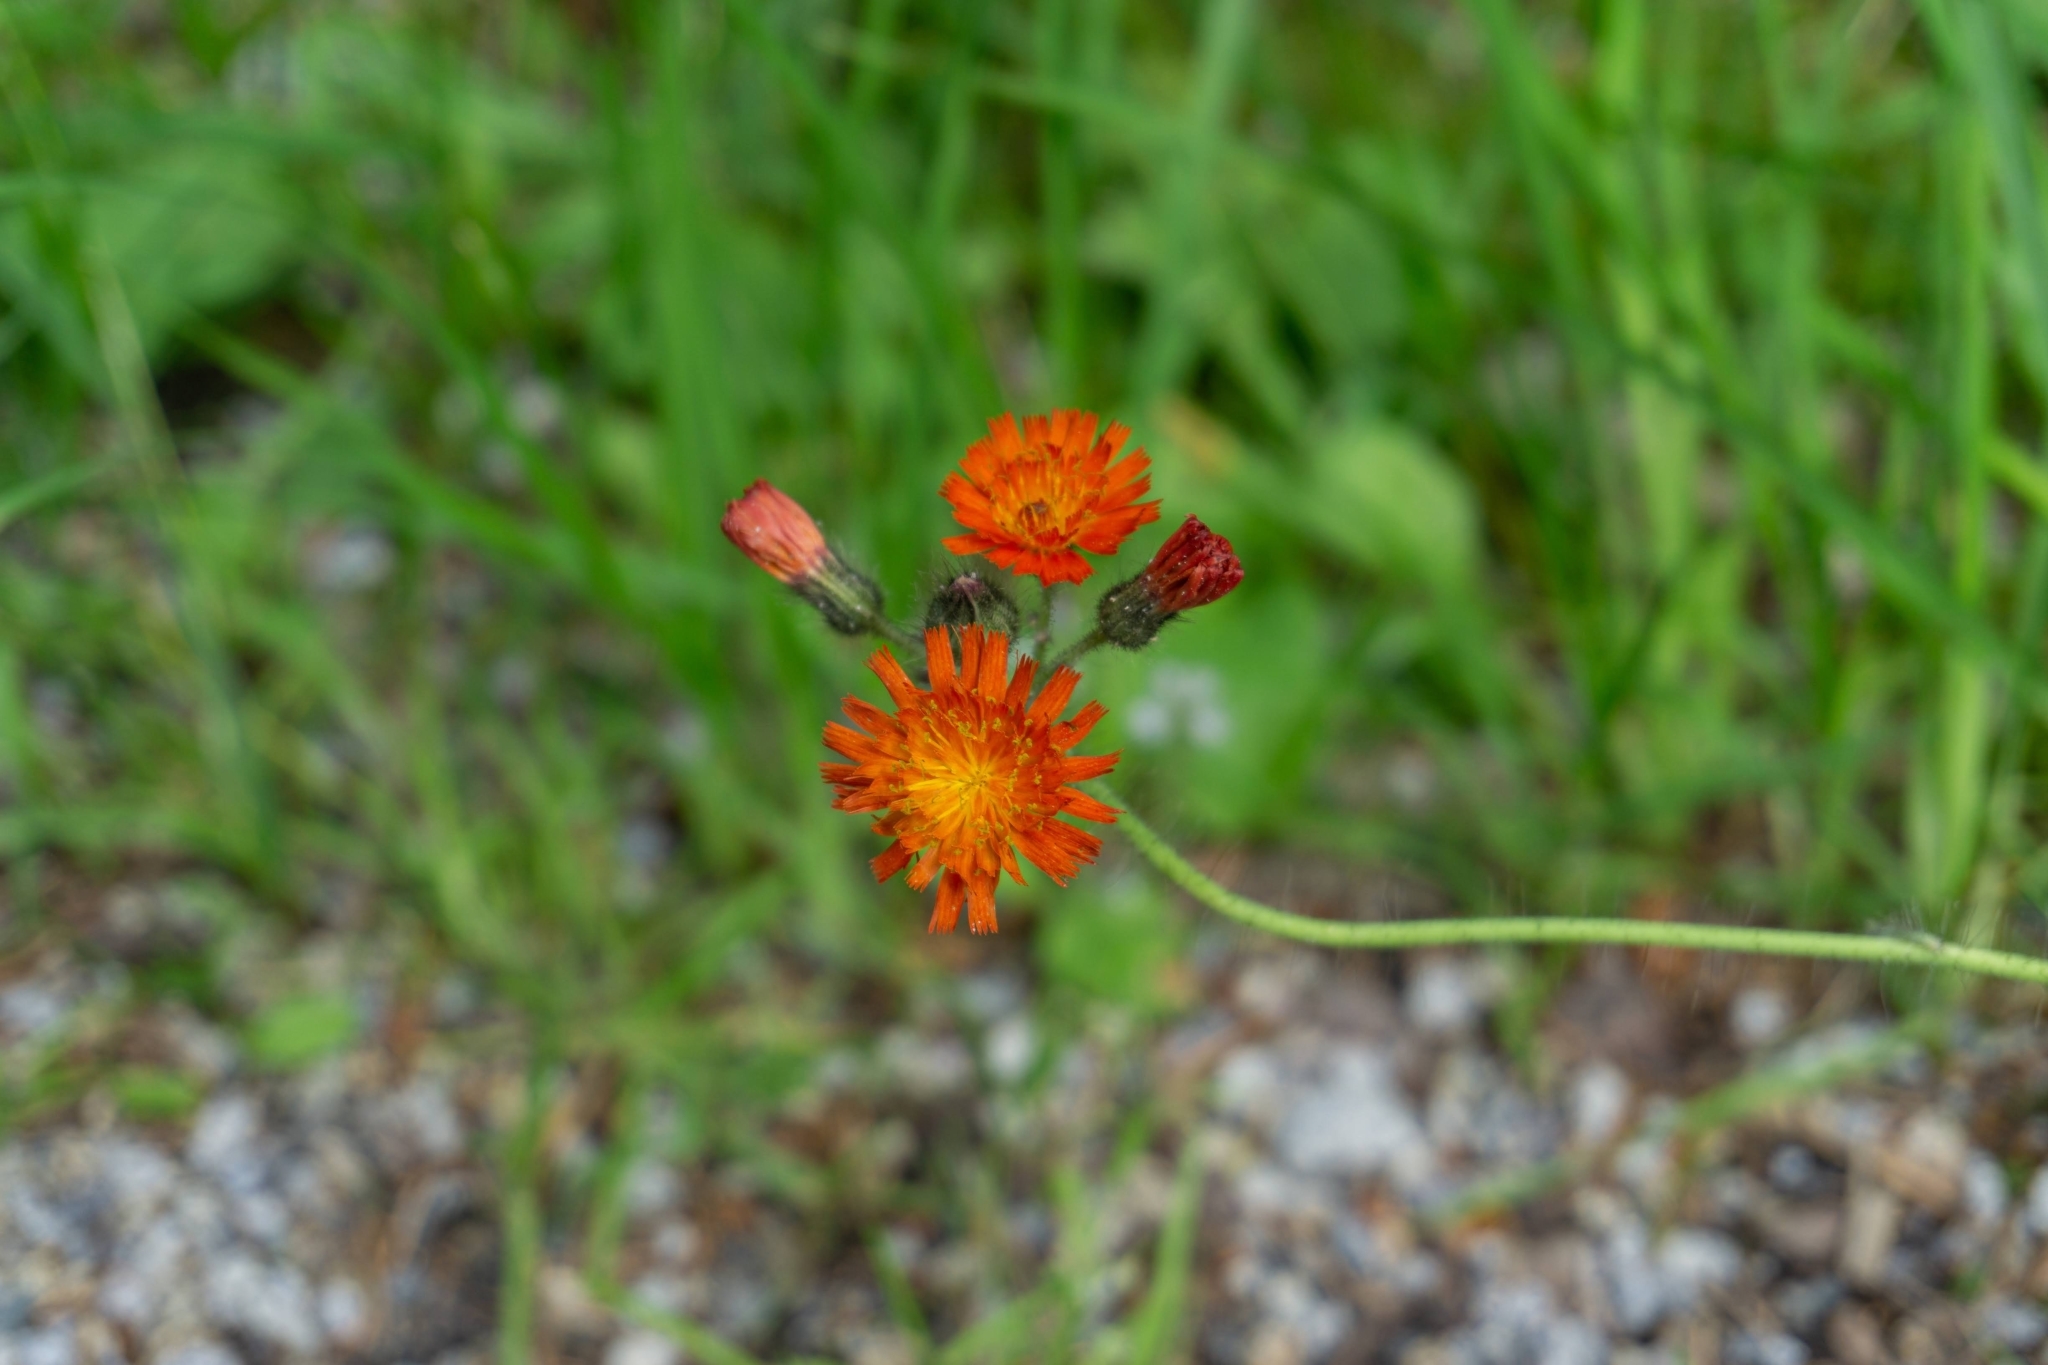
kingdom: Plantae
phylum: Tracheophyta
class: Magnoliopsida
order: Asterales
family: Asteraceae
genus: Pilosella
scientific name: Pilosella aurantiaca
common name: Fox-and-cubs
